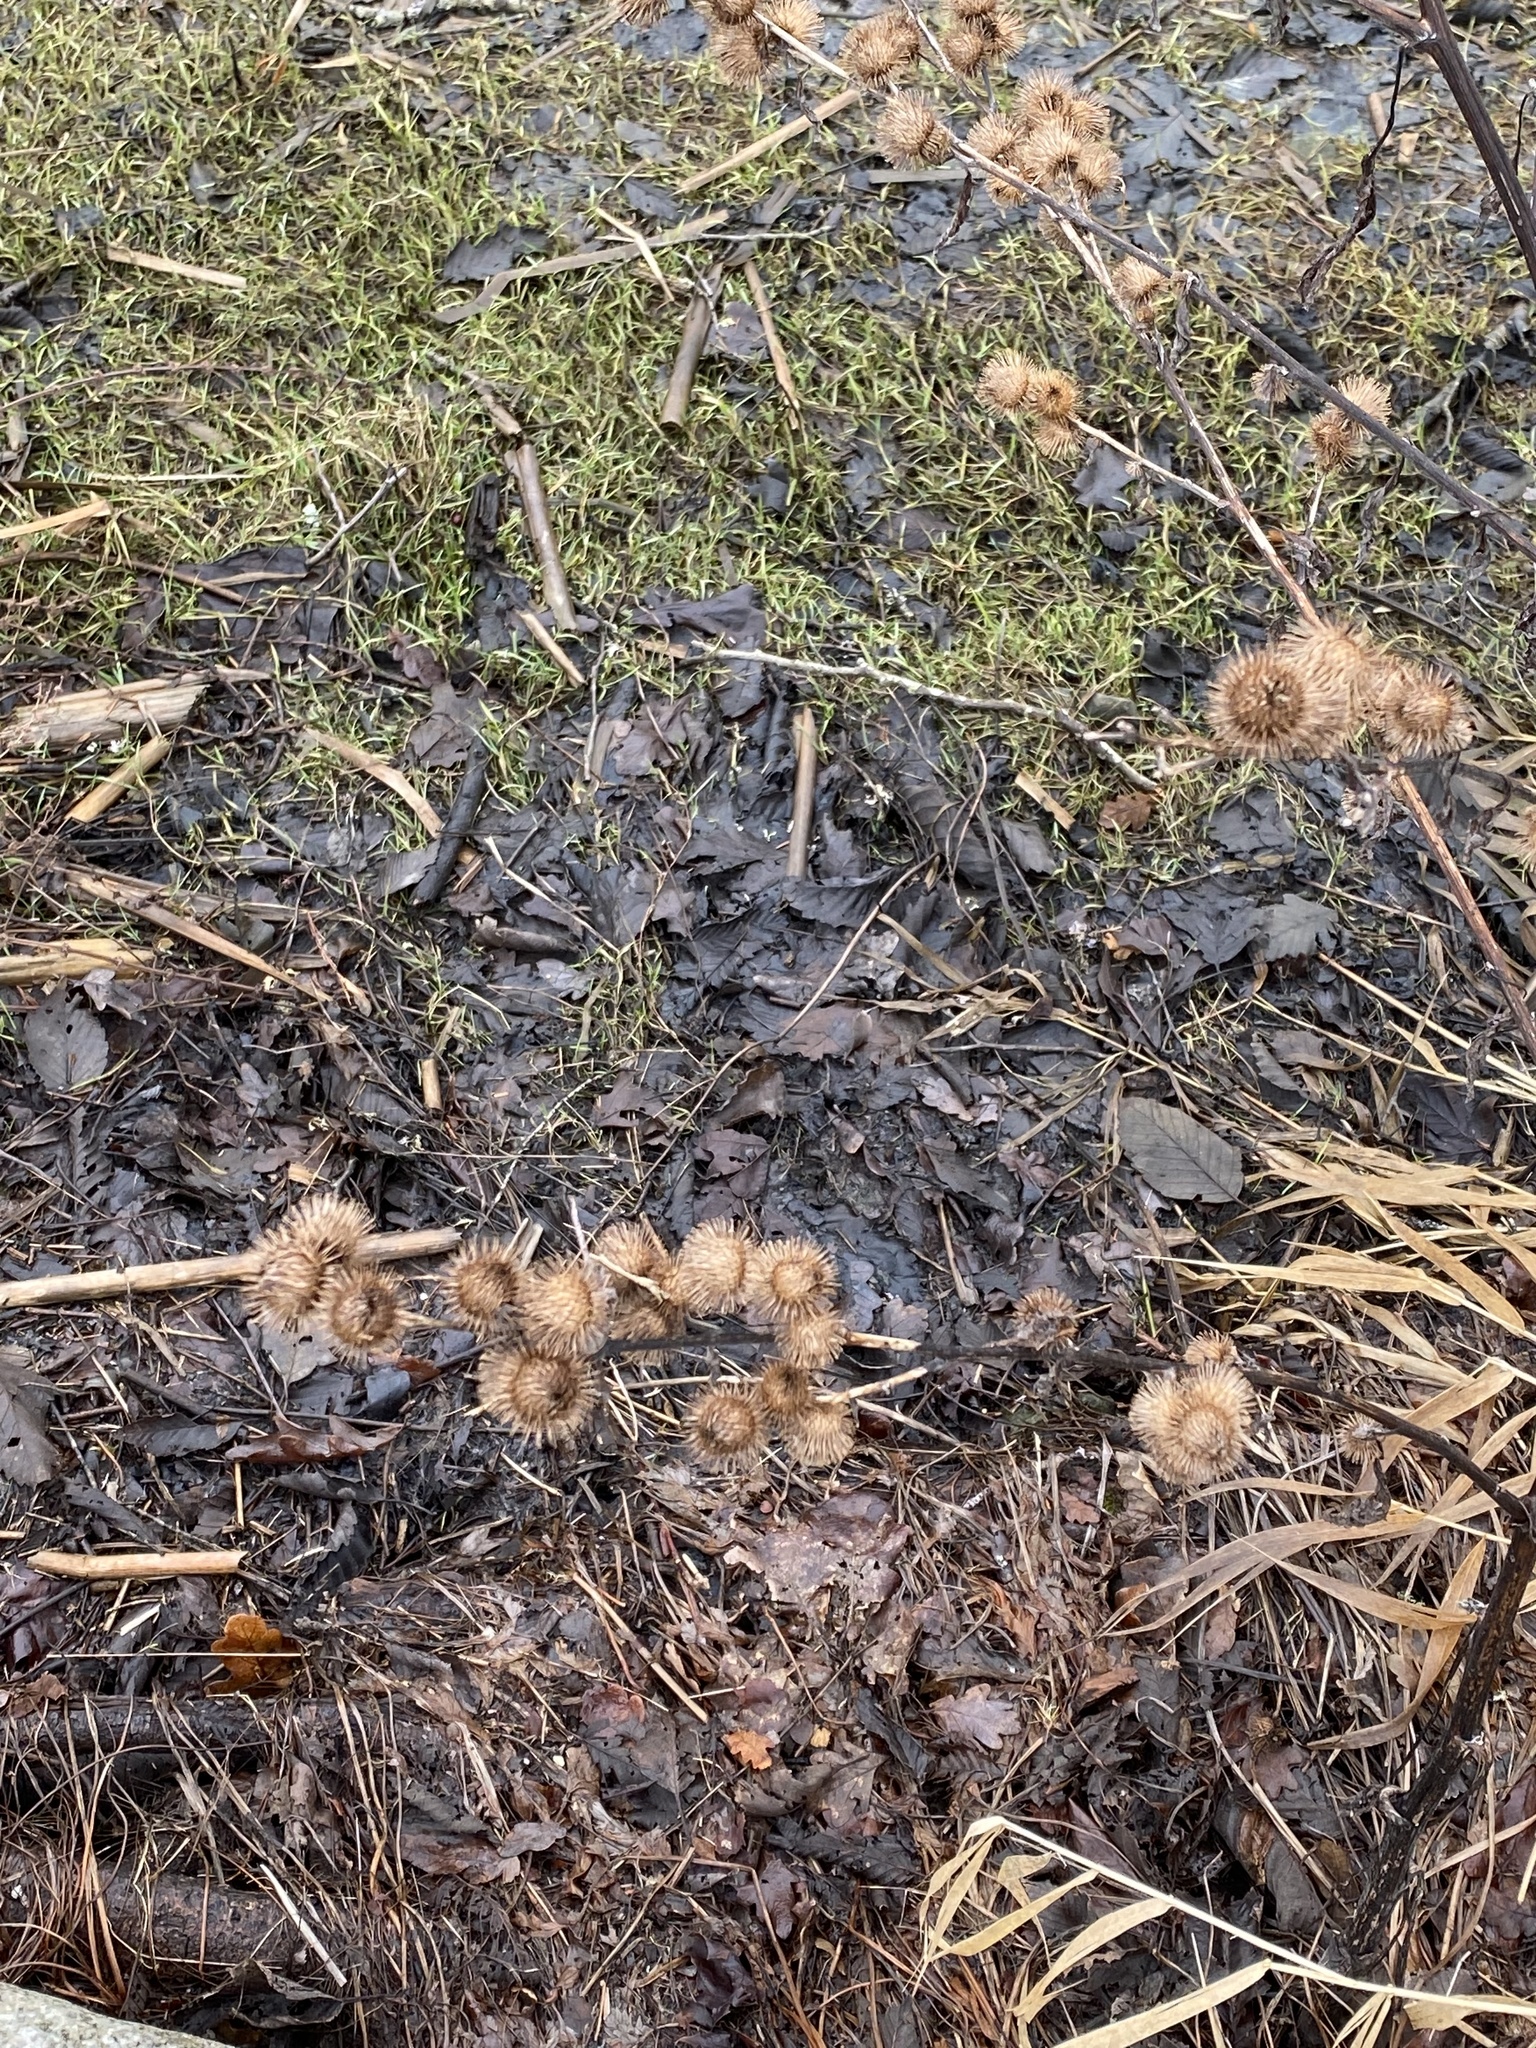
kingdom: Plantae
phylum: Tracheophyta
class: Magnoliopsida
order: Asterales
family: Asteraceae
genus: Arctium
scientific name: Arctium minus
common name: Lesser burdock
